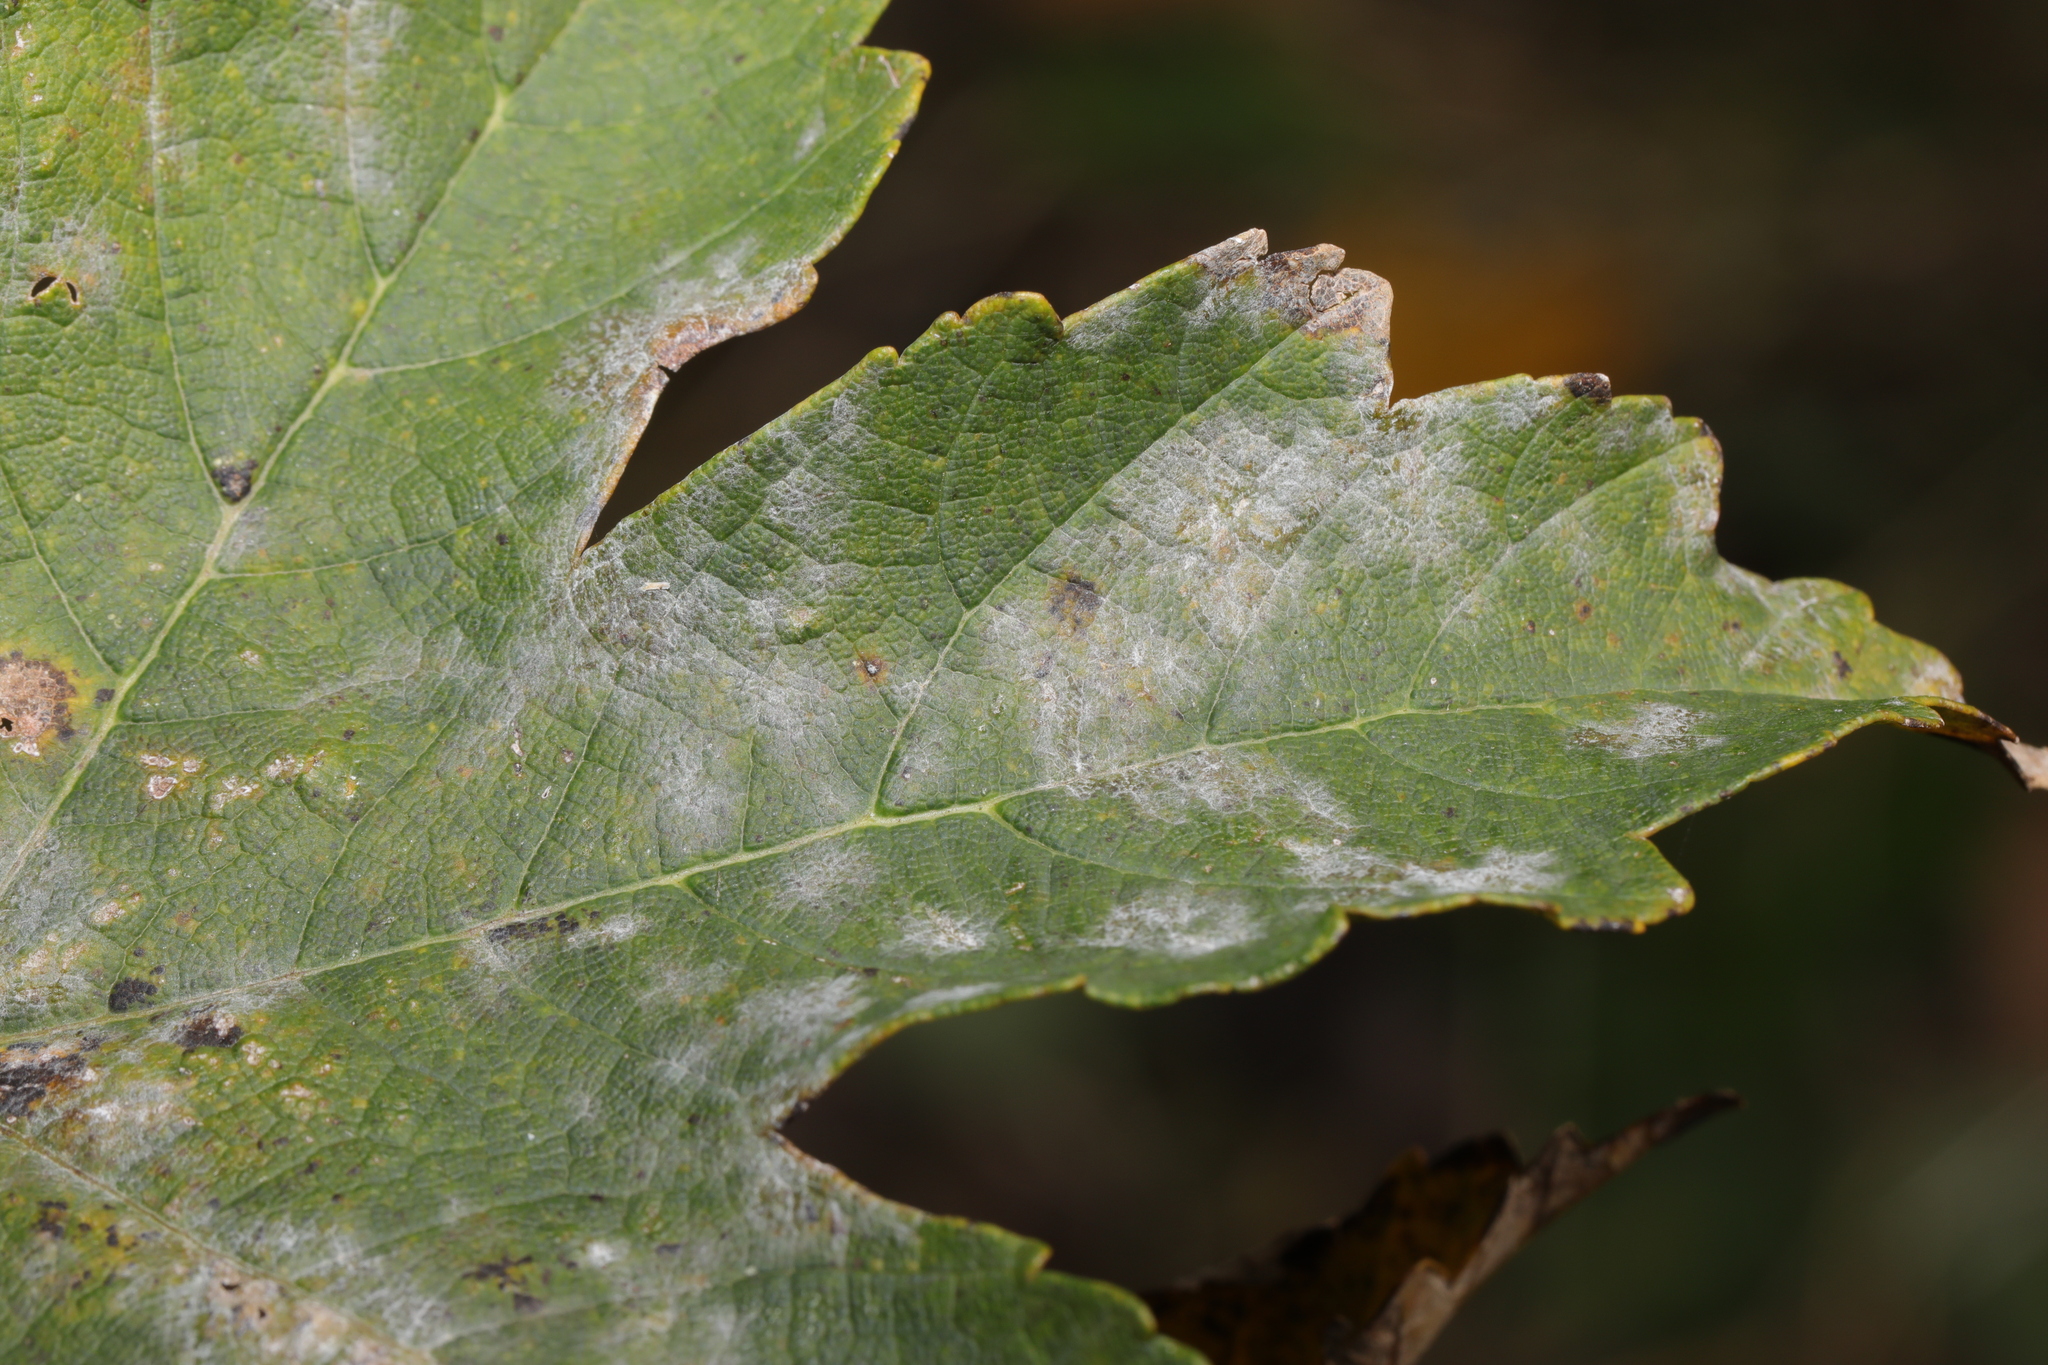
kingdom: Fungi
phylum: Ascomycota
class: Leotiomycetes
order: Helotiales
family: Erysiphaceae
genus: Sawadaea
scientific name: Sawadaea bicornis
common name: Maple mildew
